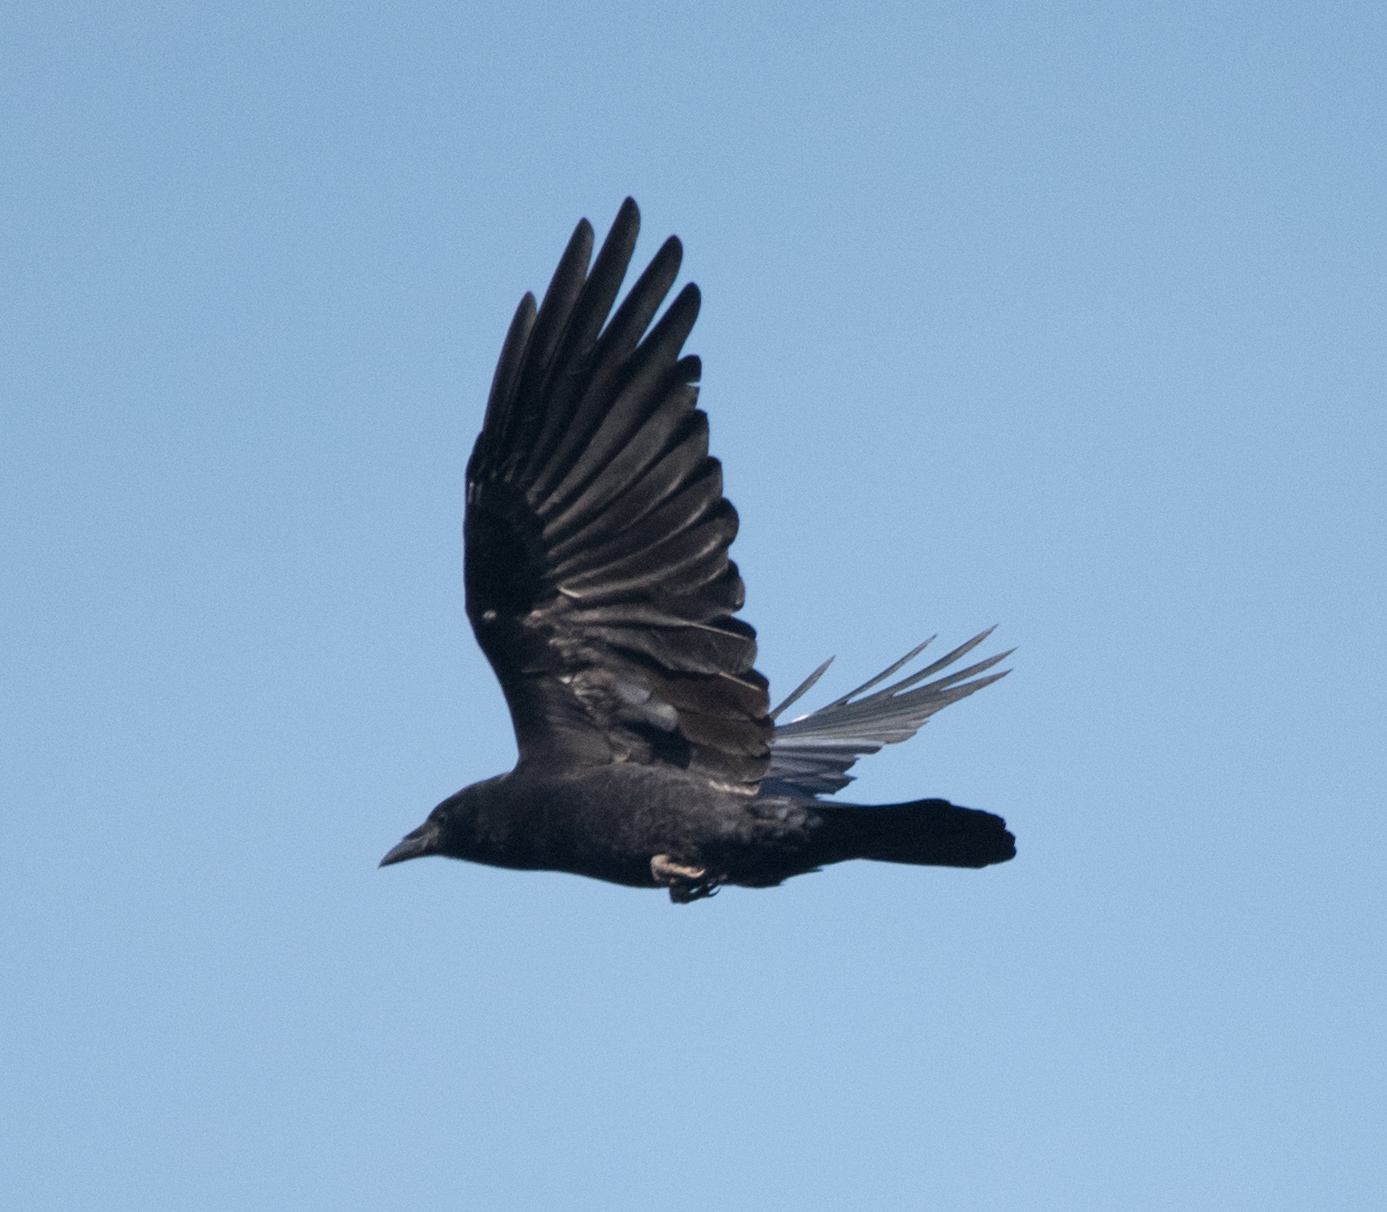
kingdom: Animalia
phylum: Chordata
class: Aves
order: Passeriformes
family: Corvidae
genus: Corvus
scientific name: Corvus brachyrhynchos
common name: American crow
